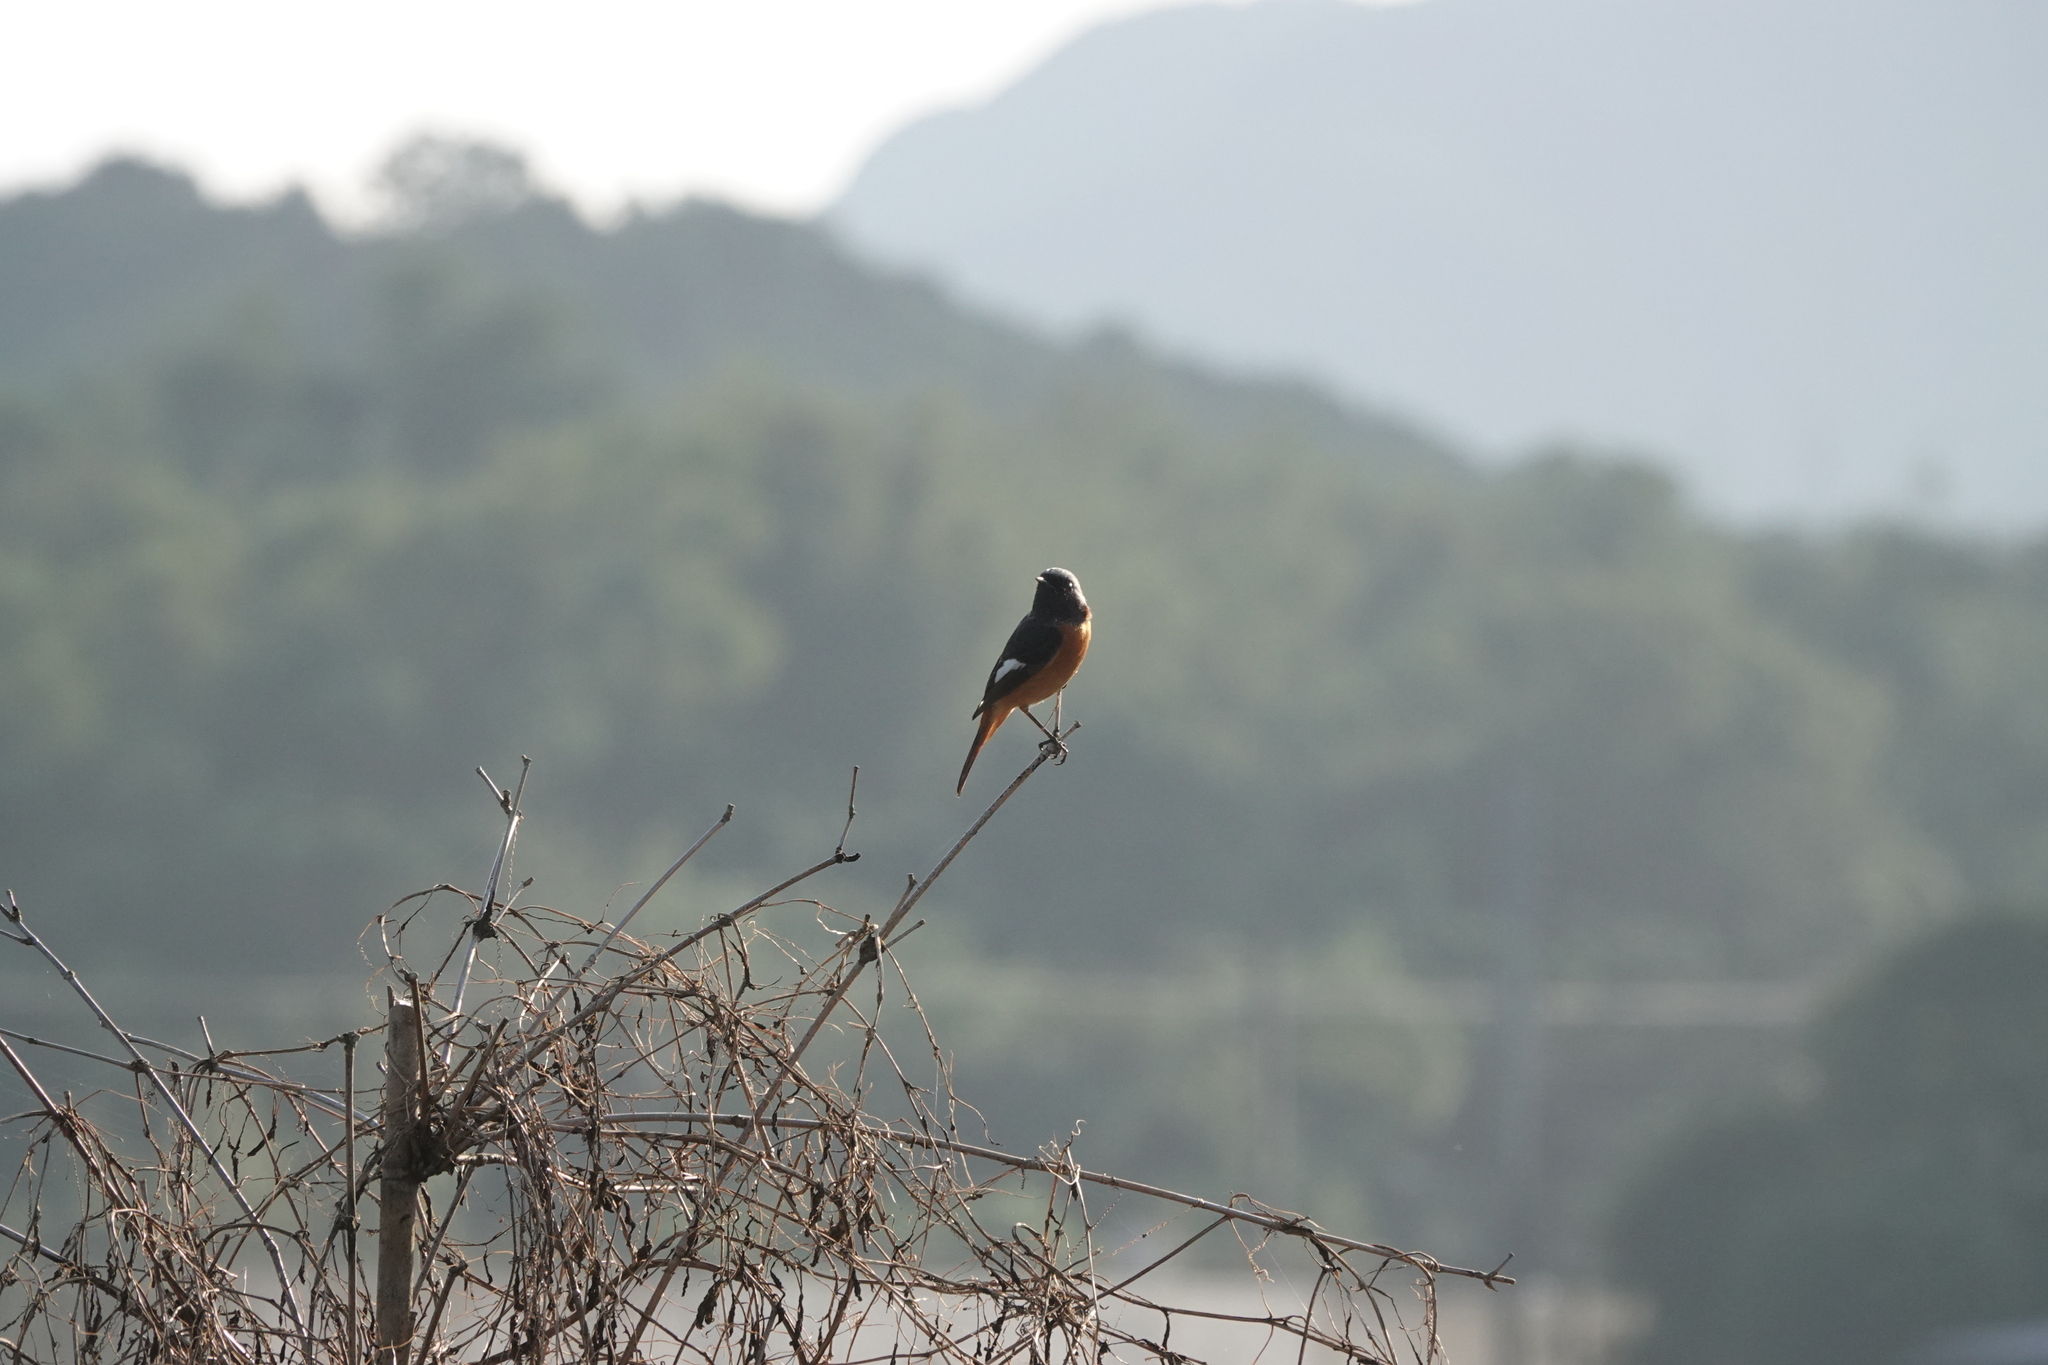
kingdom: Animalia
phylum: Chordata
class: Aves
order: Passeriformes
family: Muscicapidae
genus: Phoenicurus
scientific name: Phoenicurus auroreus
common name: Daurian redstart
